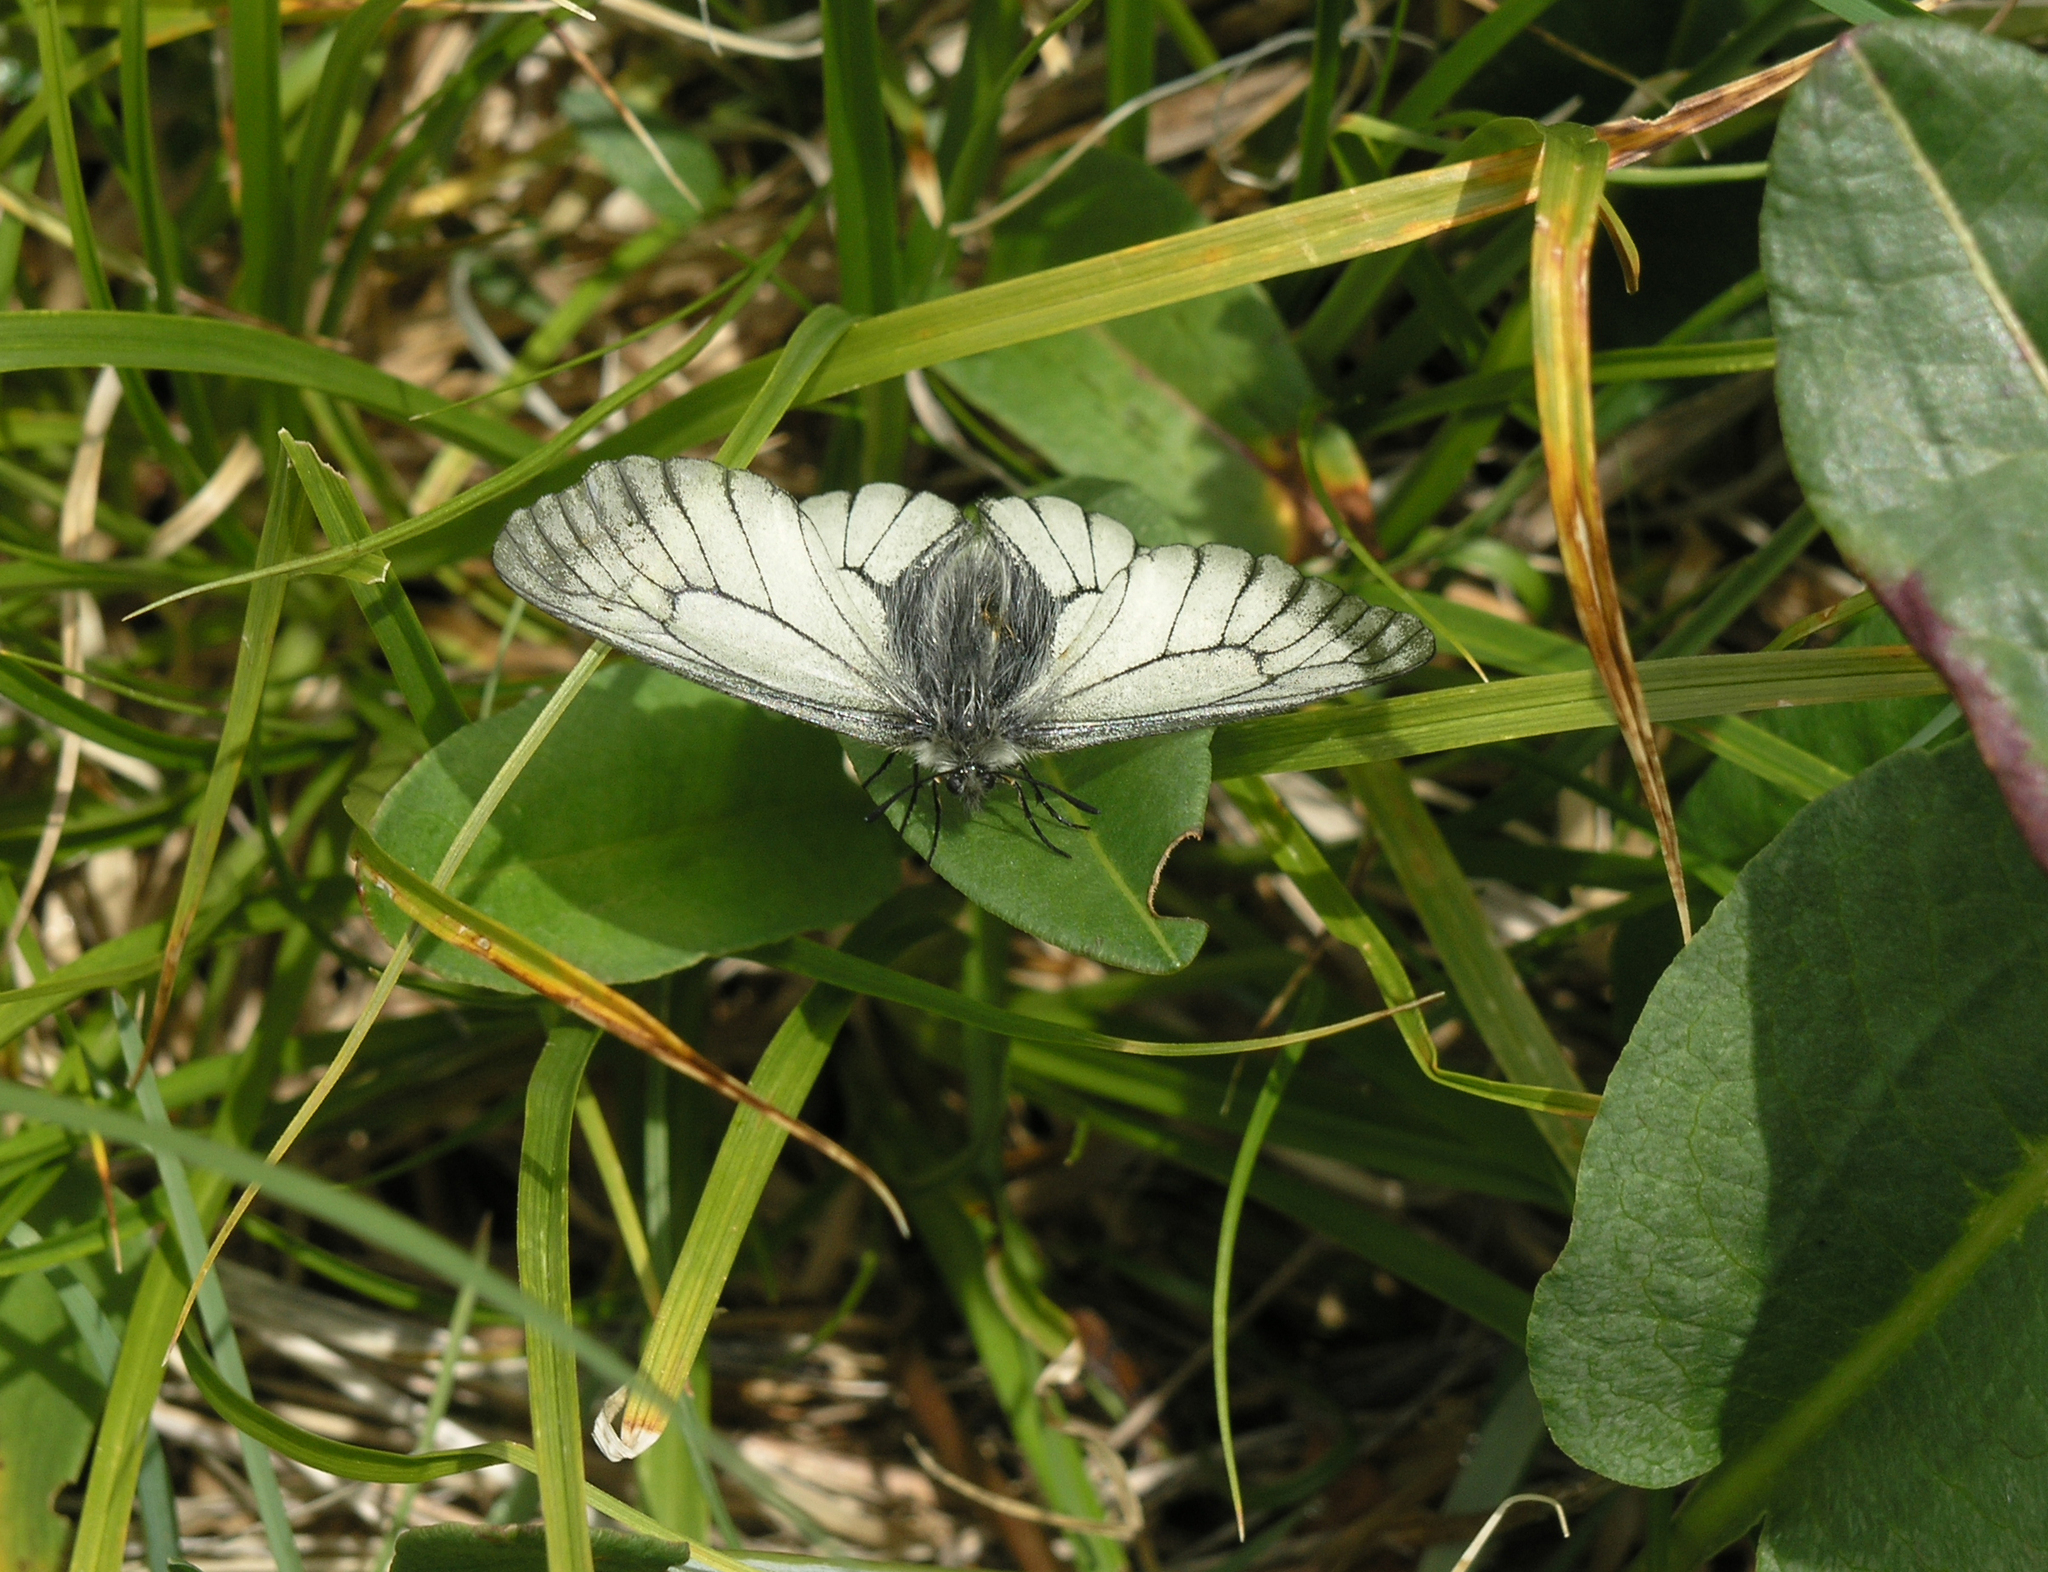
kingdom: Animalia
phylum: Arthropoda
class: Insecta
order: Lepidoptera
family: Papilionidae
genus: Parnassius
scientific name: Parnassius stubbendorfii
